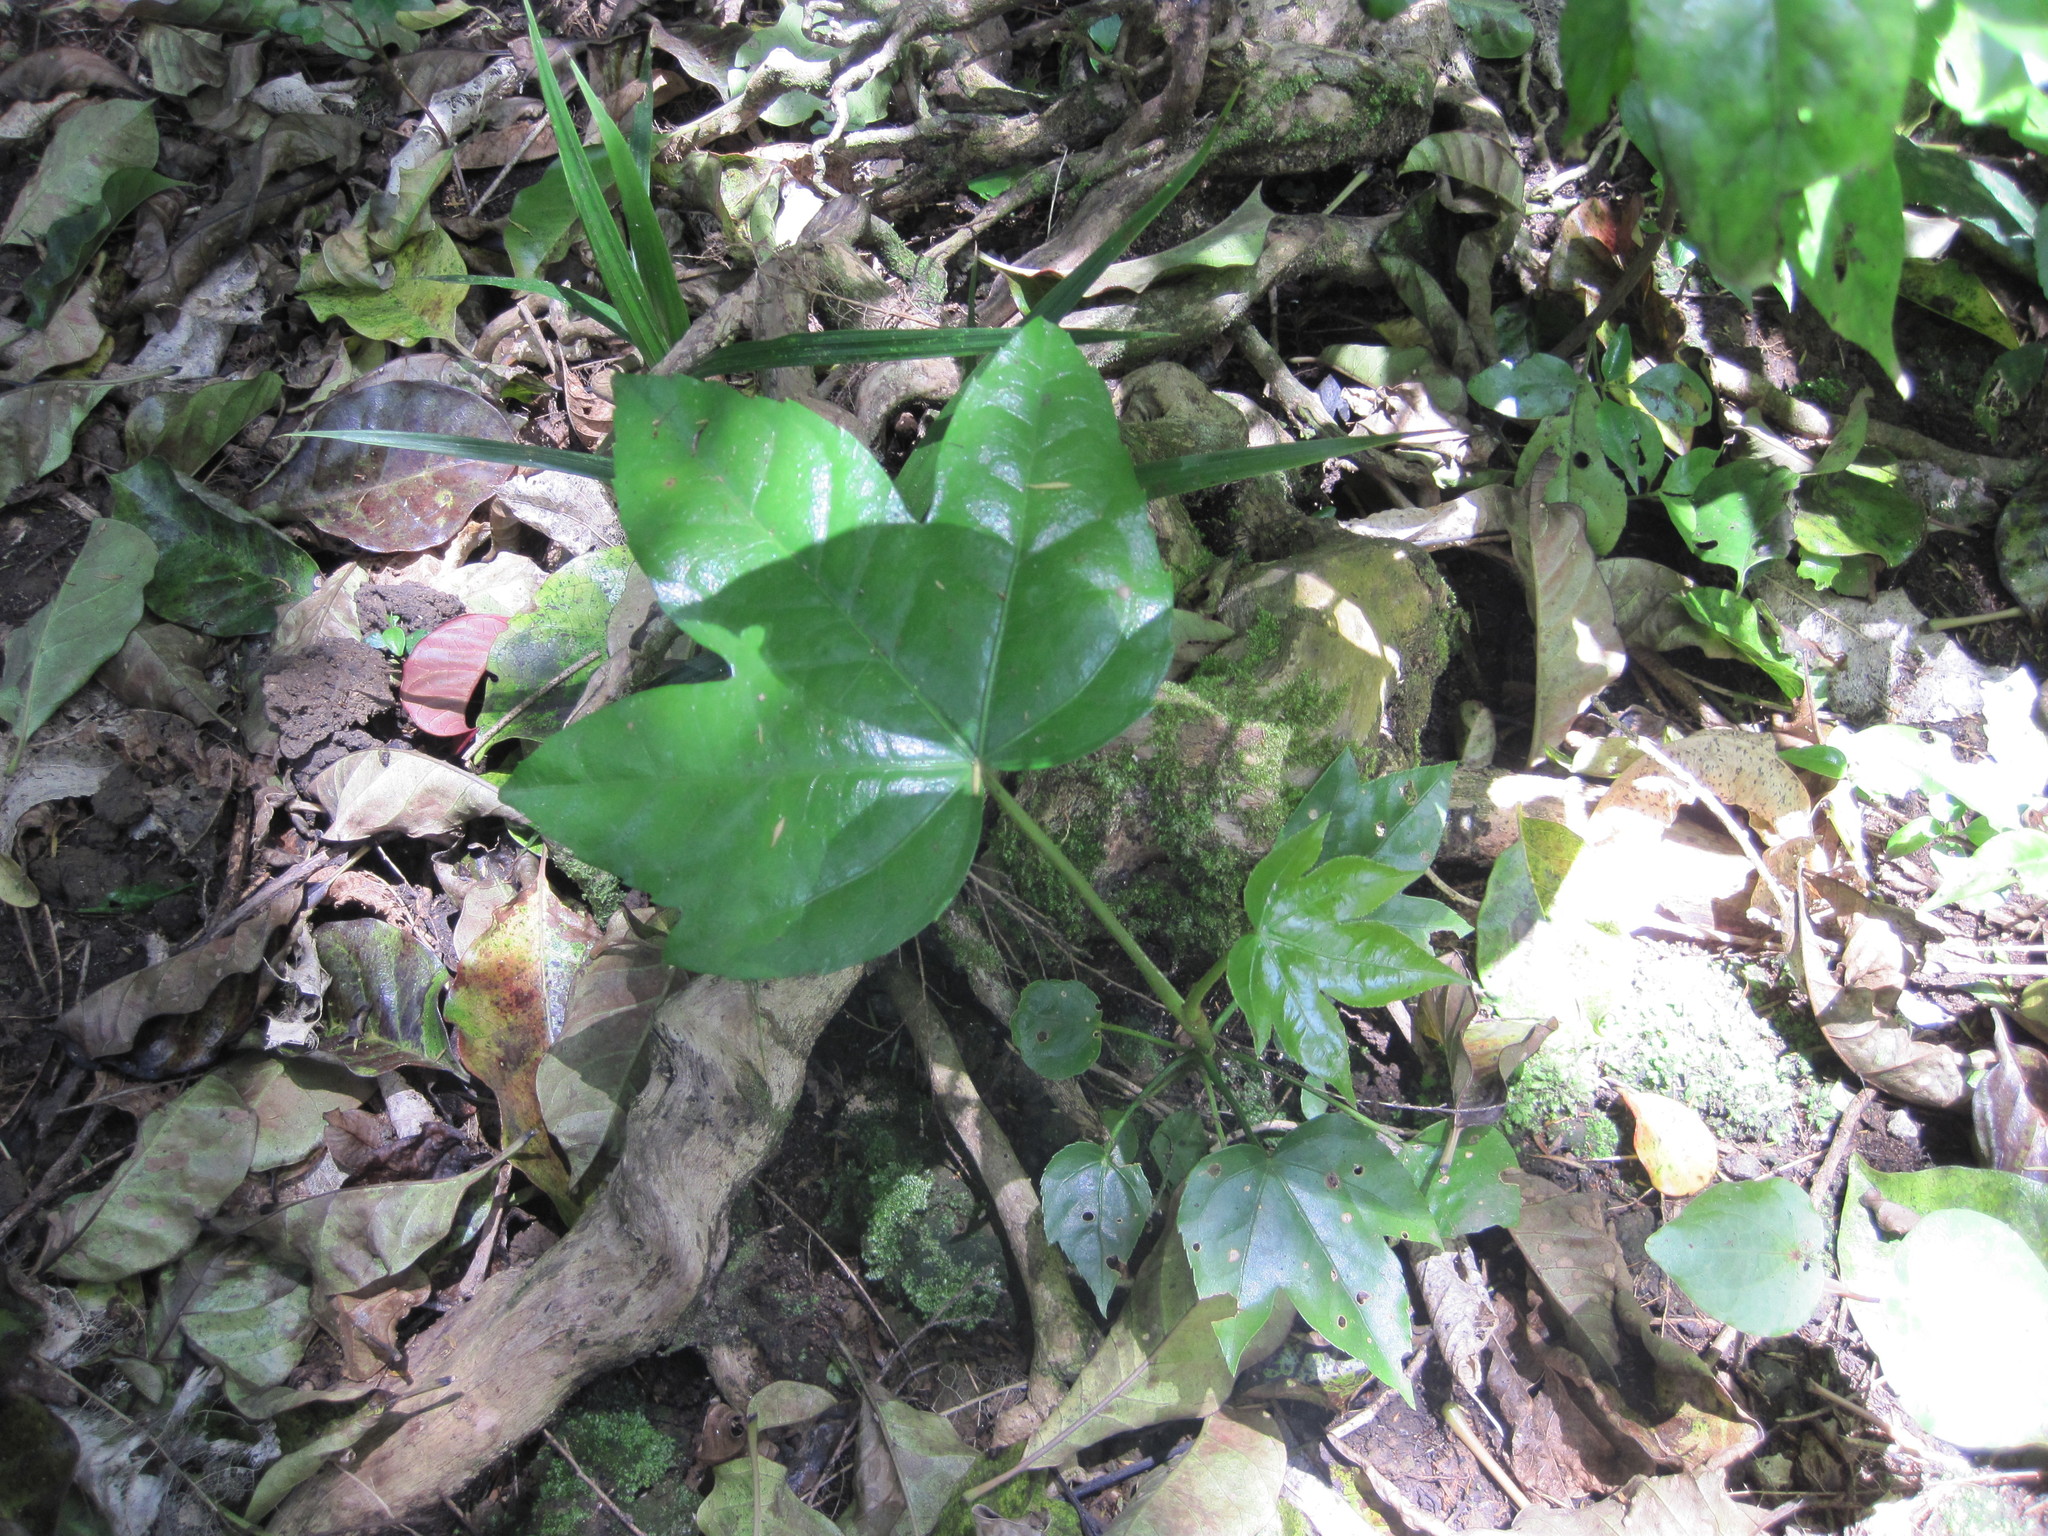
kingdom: Plantae
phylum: Tracheophyta
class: Magnoliopsida
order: Apiales
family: Araliaceae
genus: Fatsia
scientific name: Fatsia japonica
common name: Fatsia
